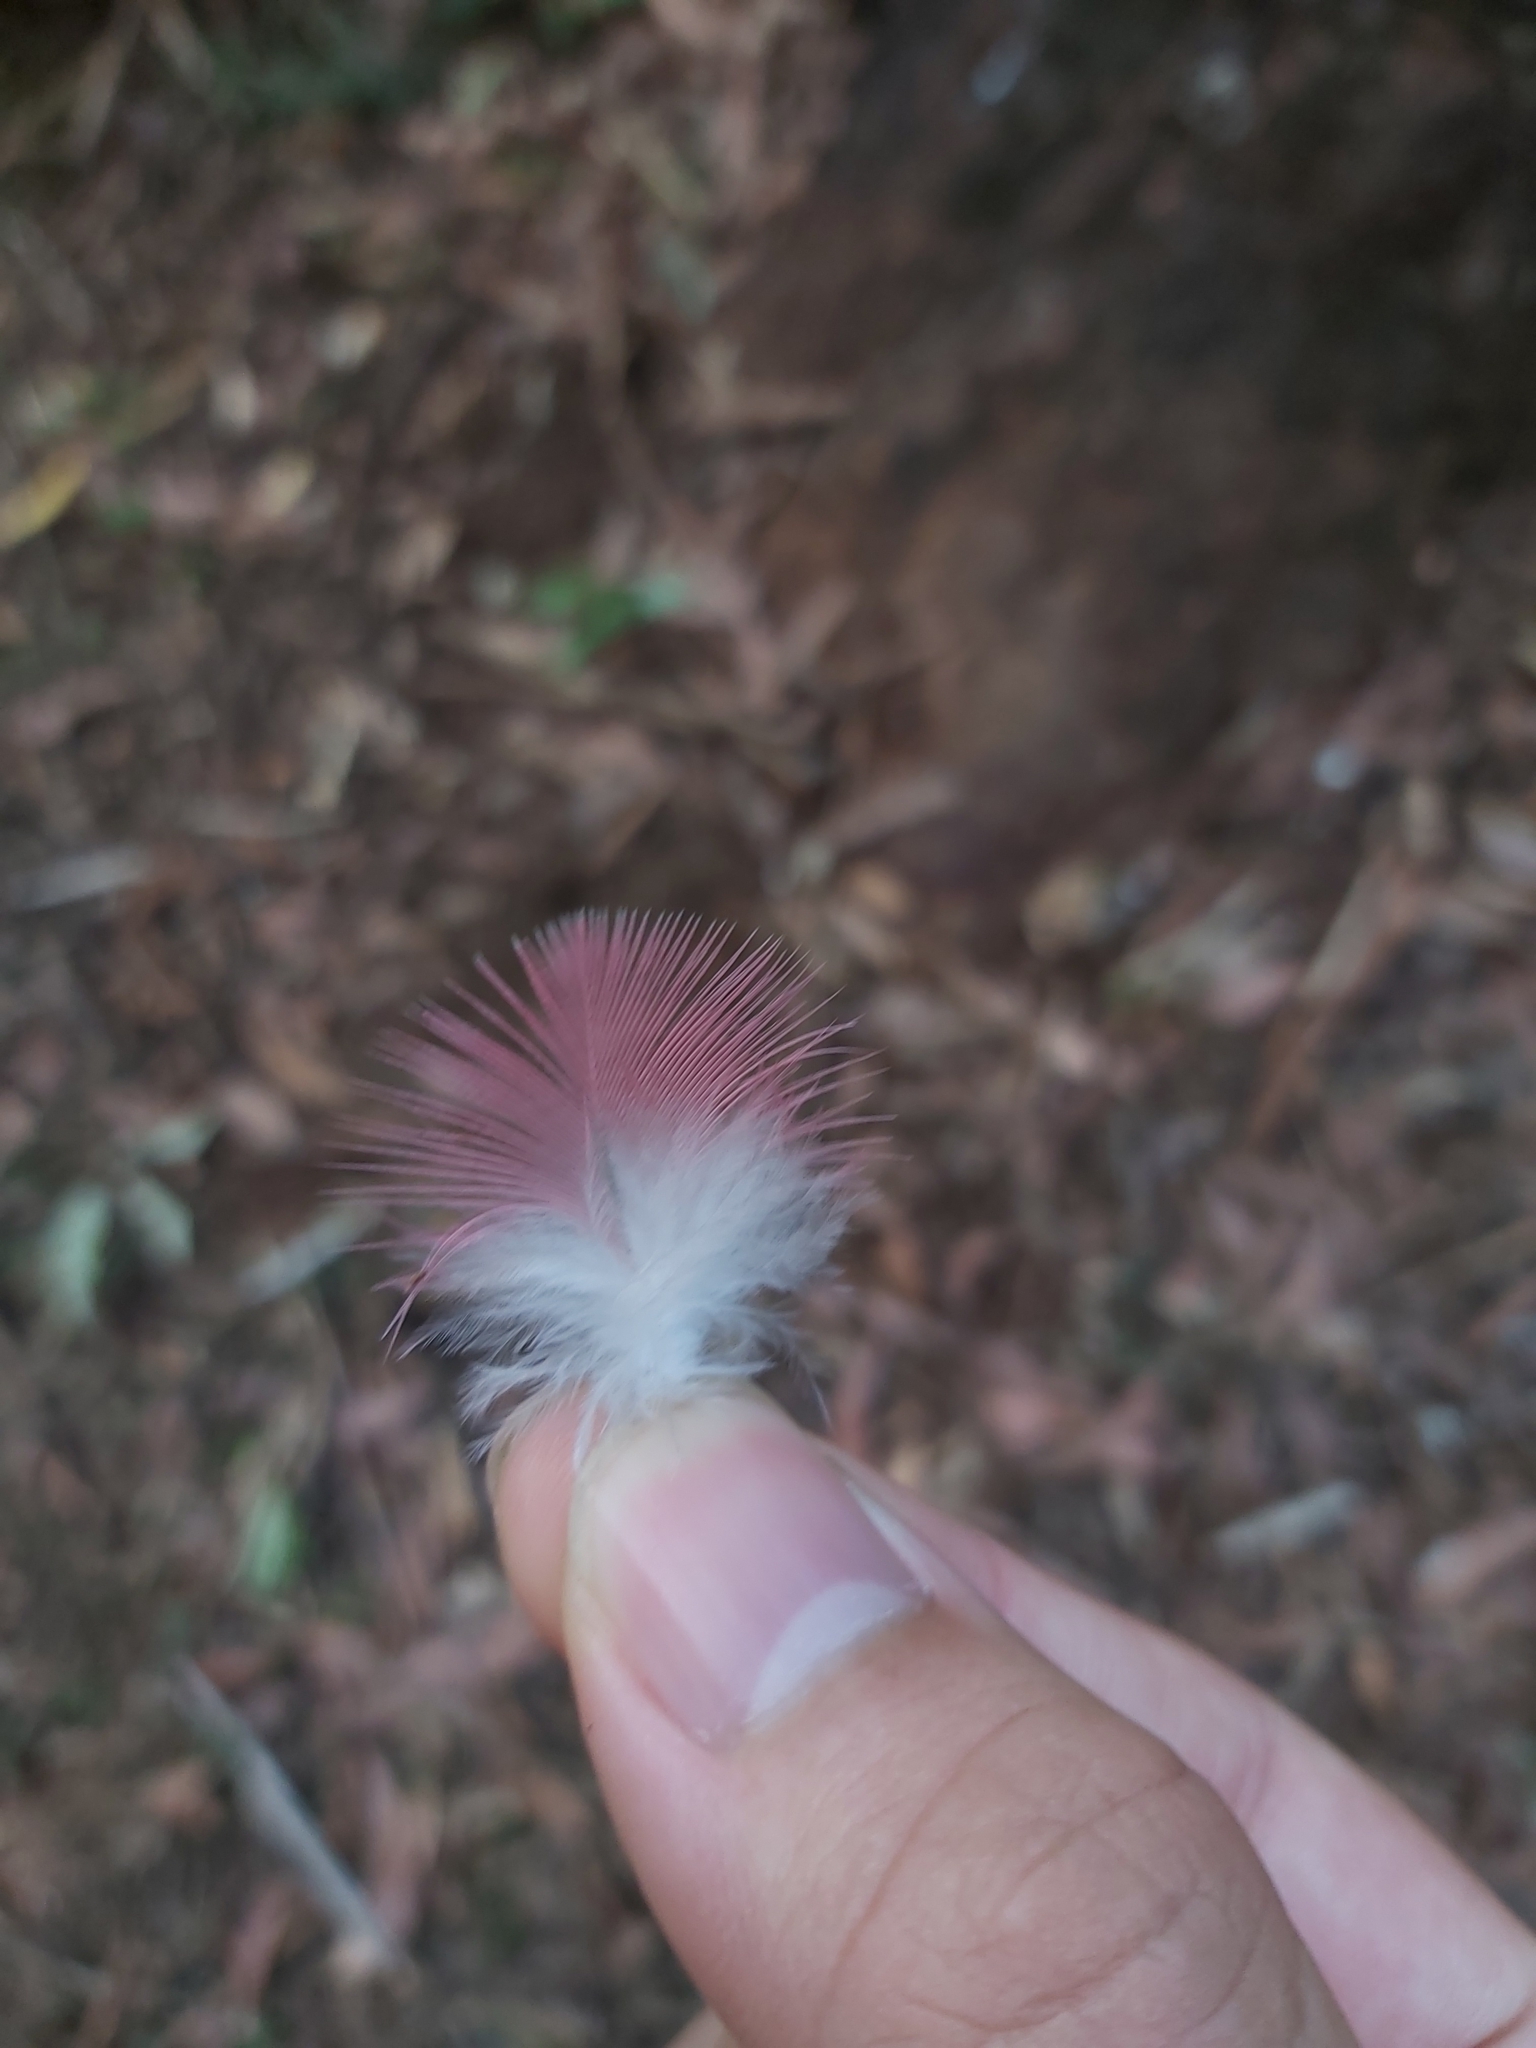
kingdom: Animalia
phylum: Chordata
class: Aves
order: Psittaciformes
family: Psittacidae
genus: Eolophus
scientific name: Eolophus roseicapilla
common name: Galah
